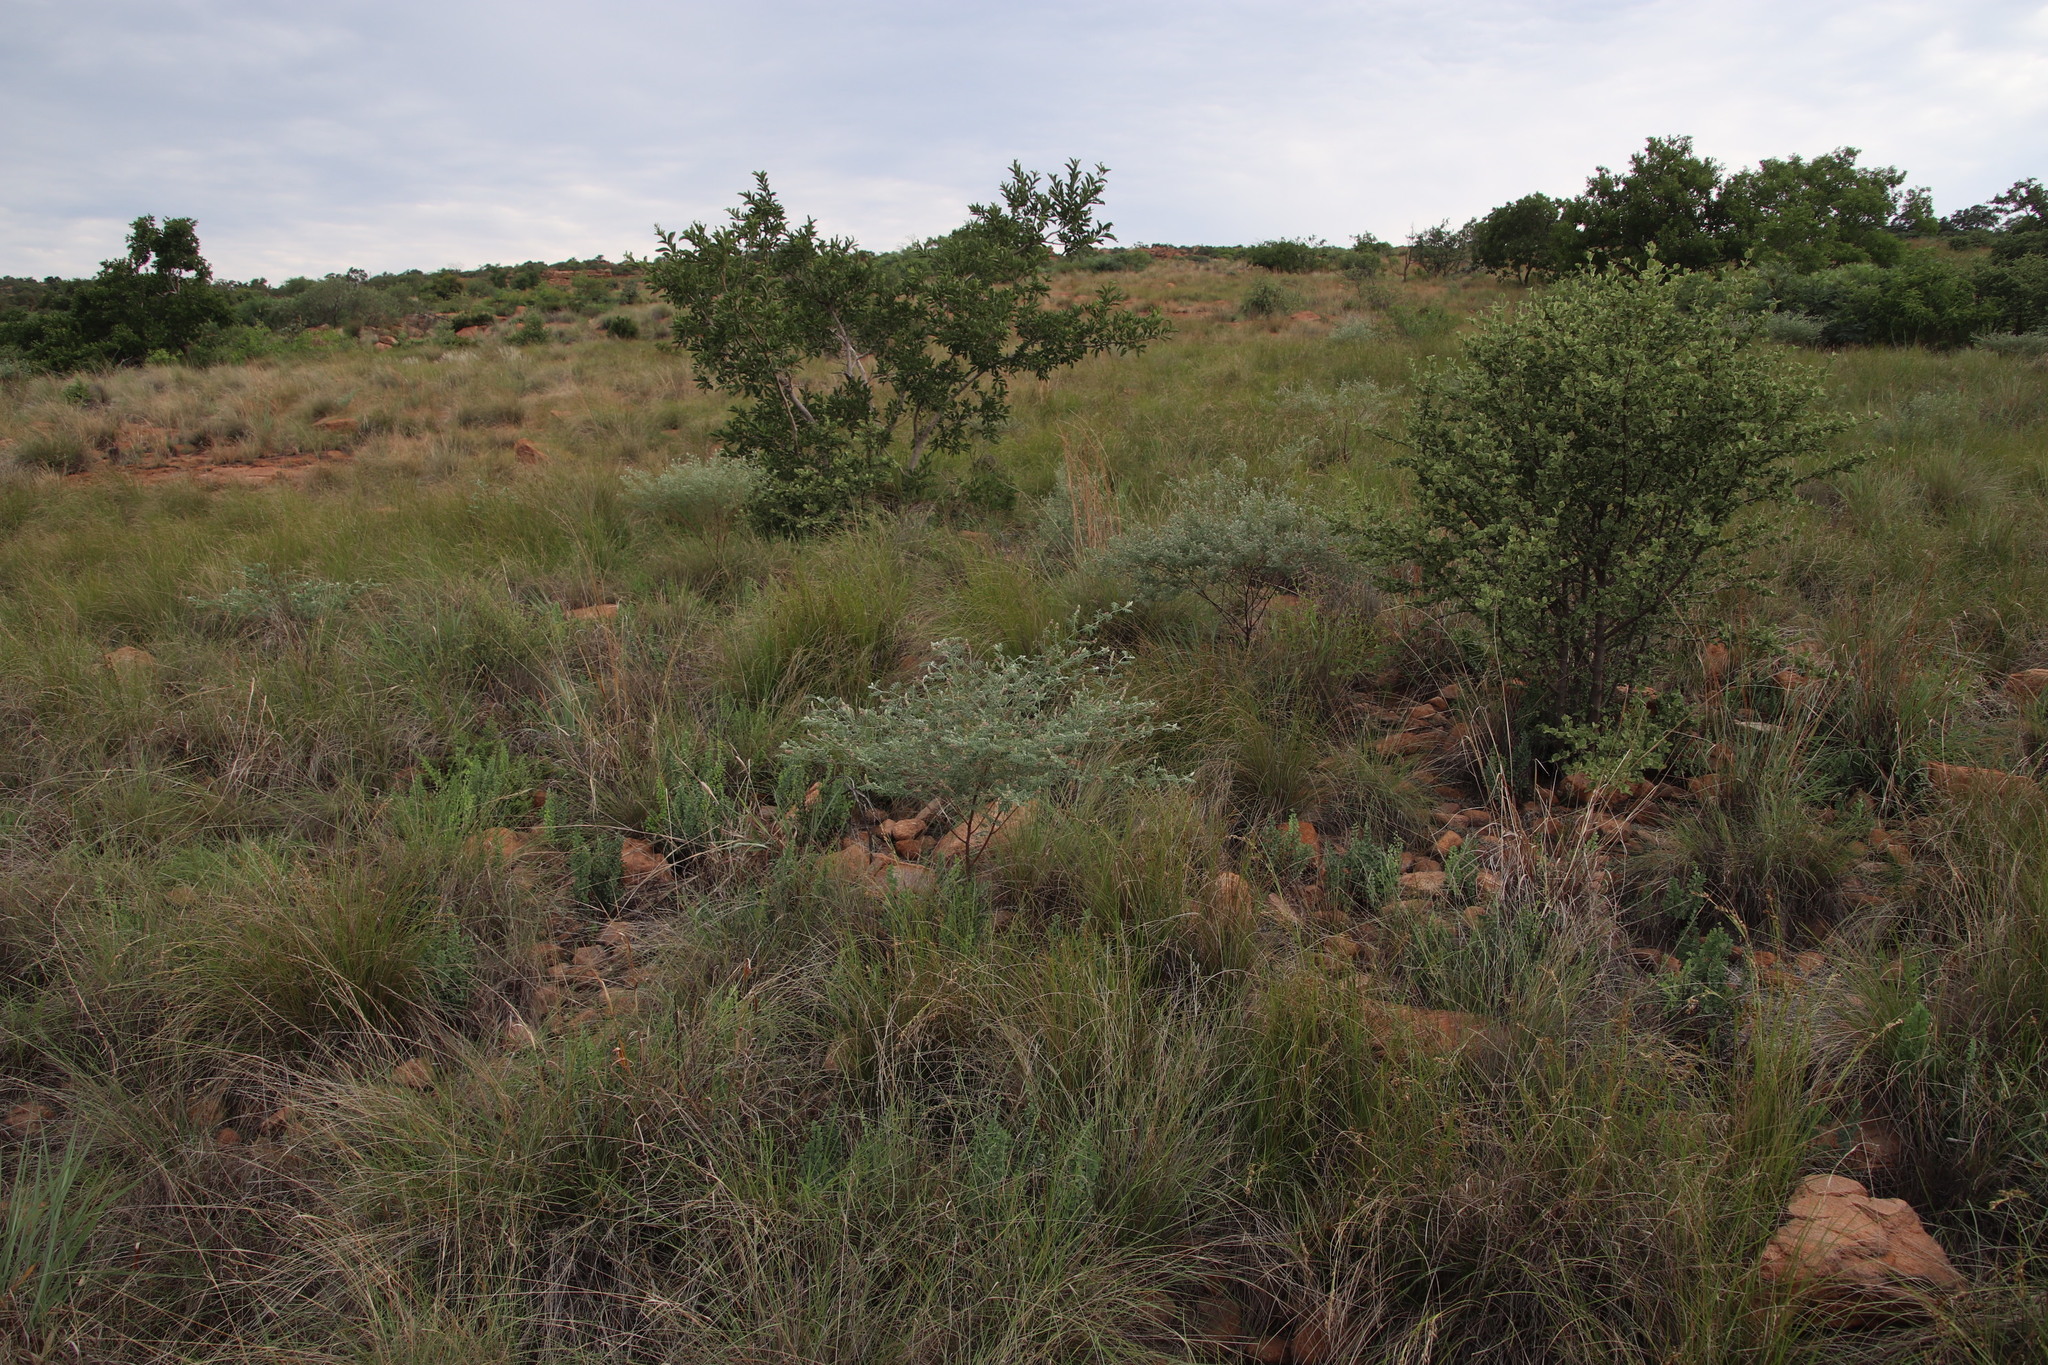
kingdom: Plantae
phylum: Tracheophyta
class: Magnoliopsida
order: Fabales
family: Fabaceae
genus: Indigofera
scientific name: Indigofera melanadenia
